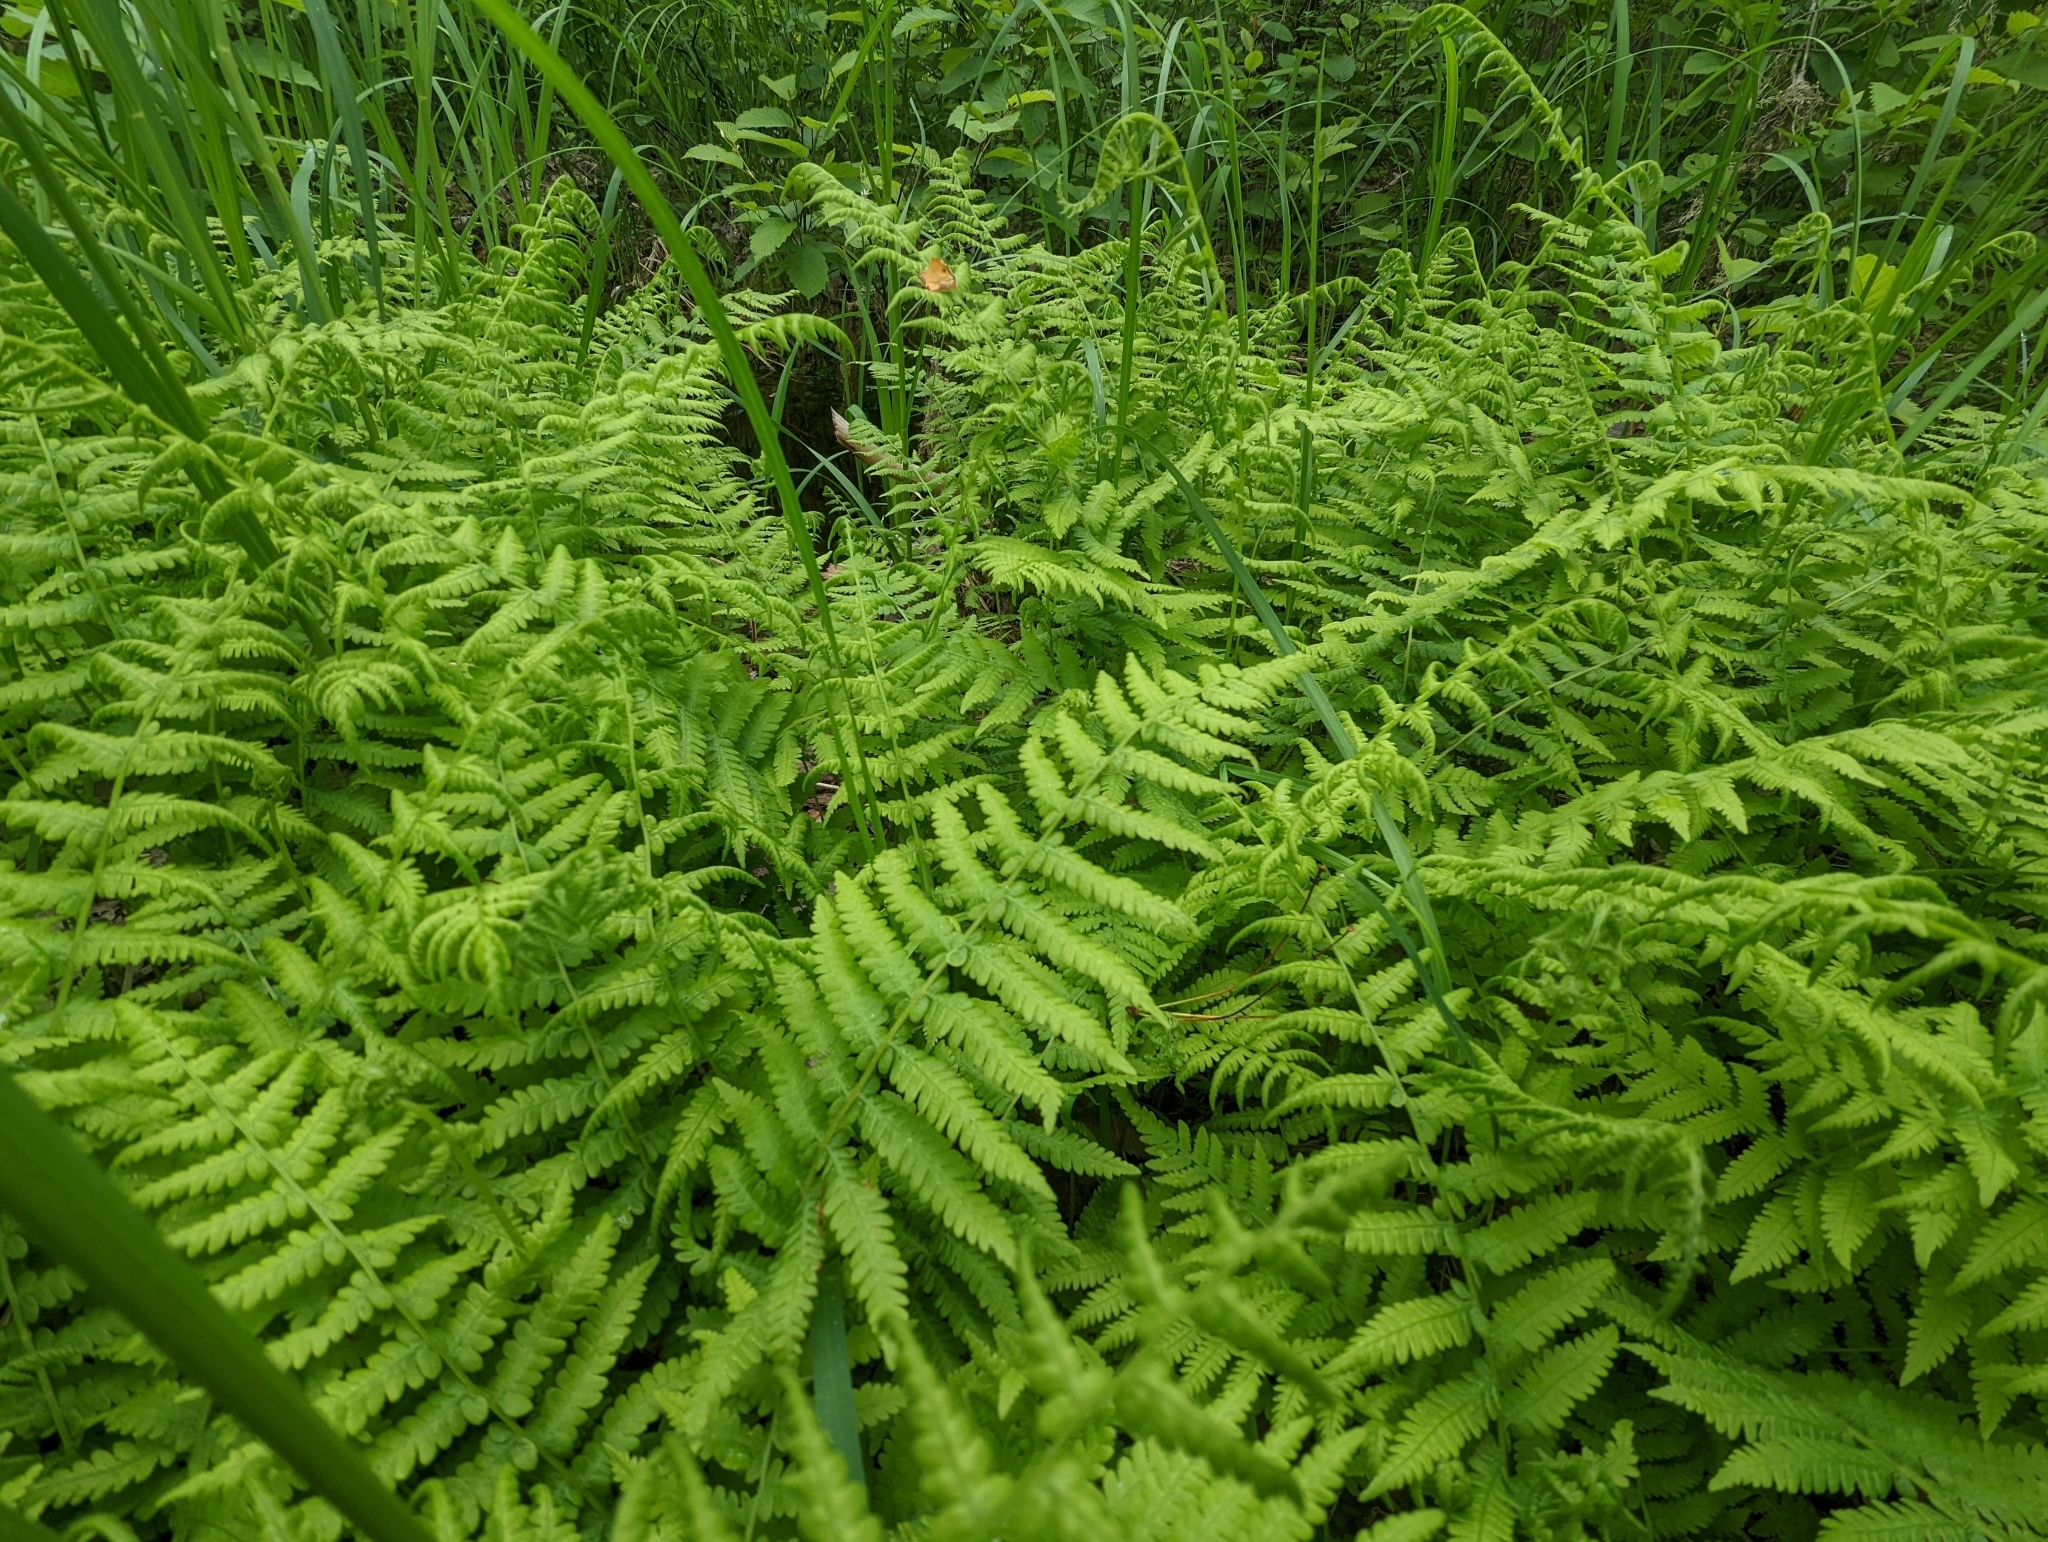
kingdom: Plantae
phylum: Tracheophyta
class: Polypodiopsida
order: Polypodiales
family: Thelypteridaceae
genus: Coryphopteris
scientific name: Coryphopteris simulata
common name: Bog fern
